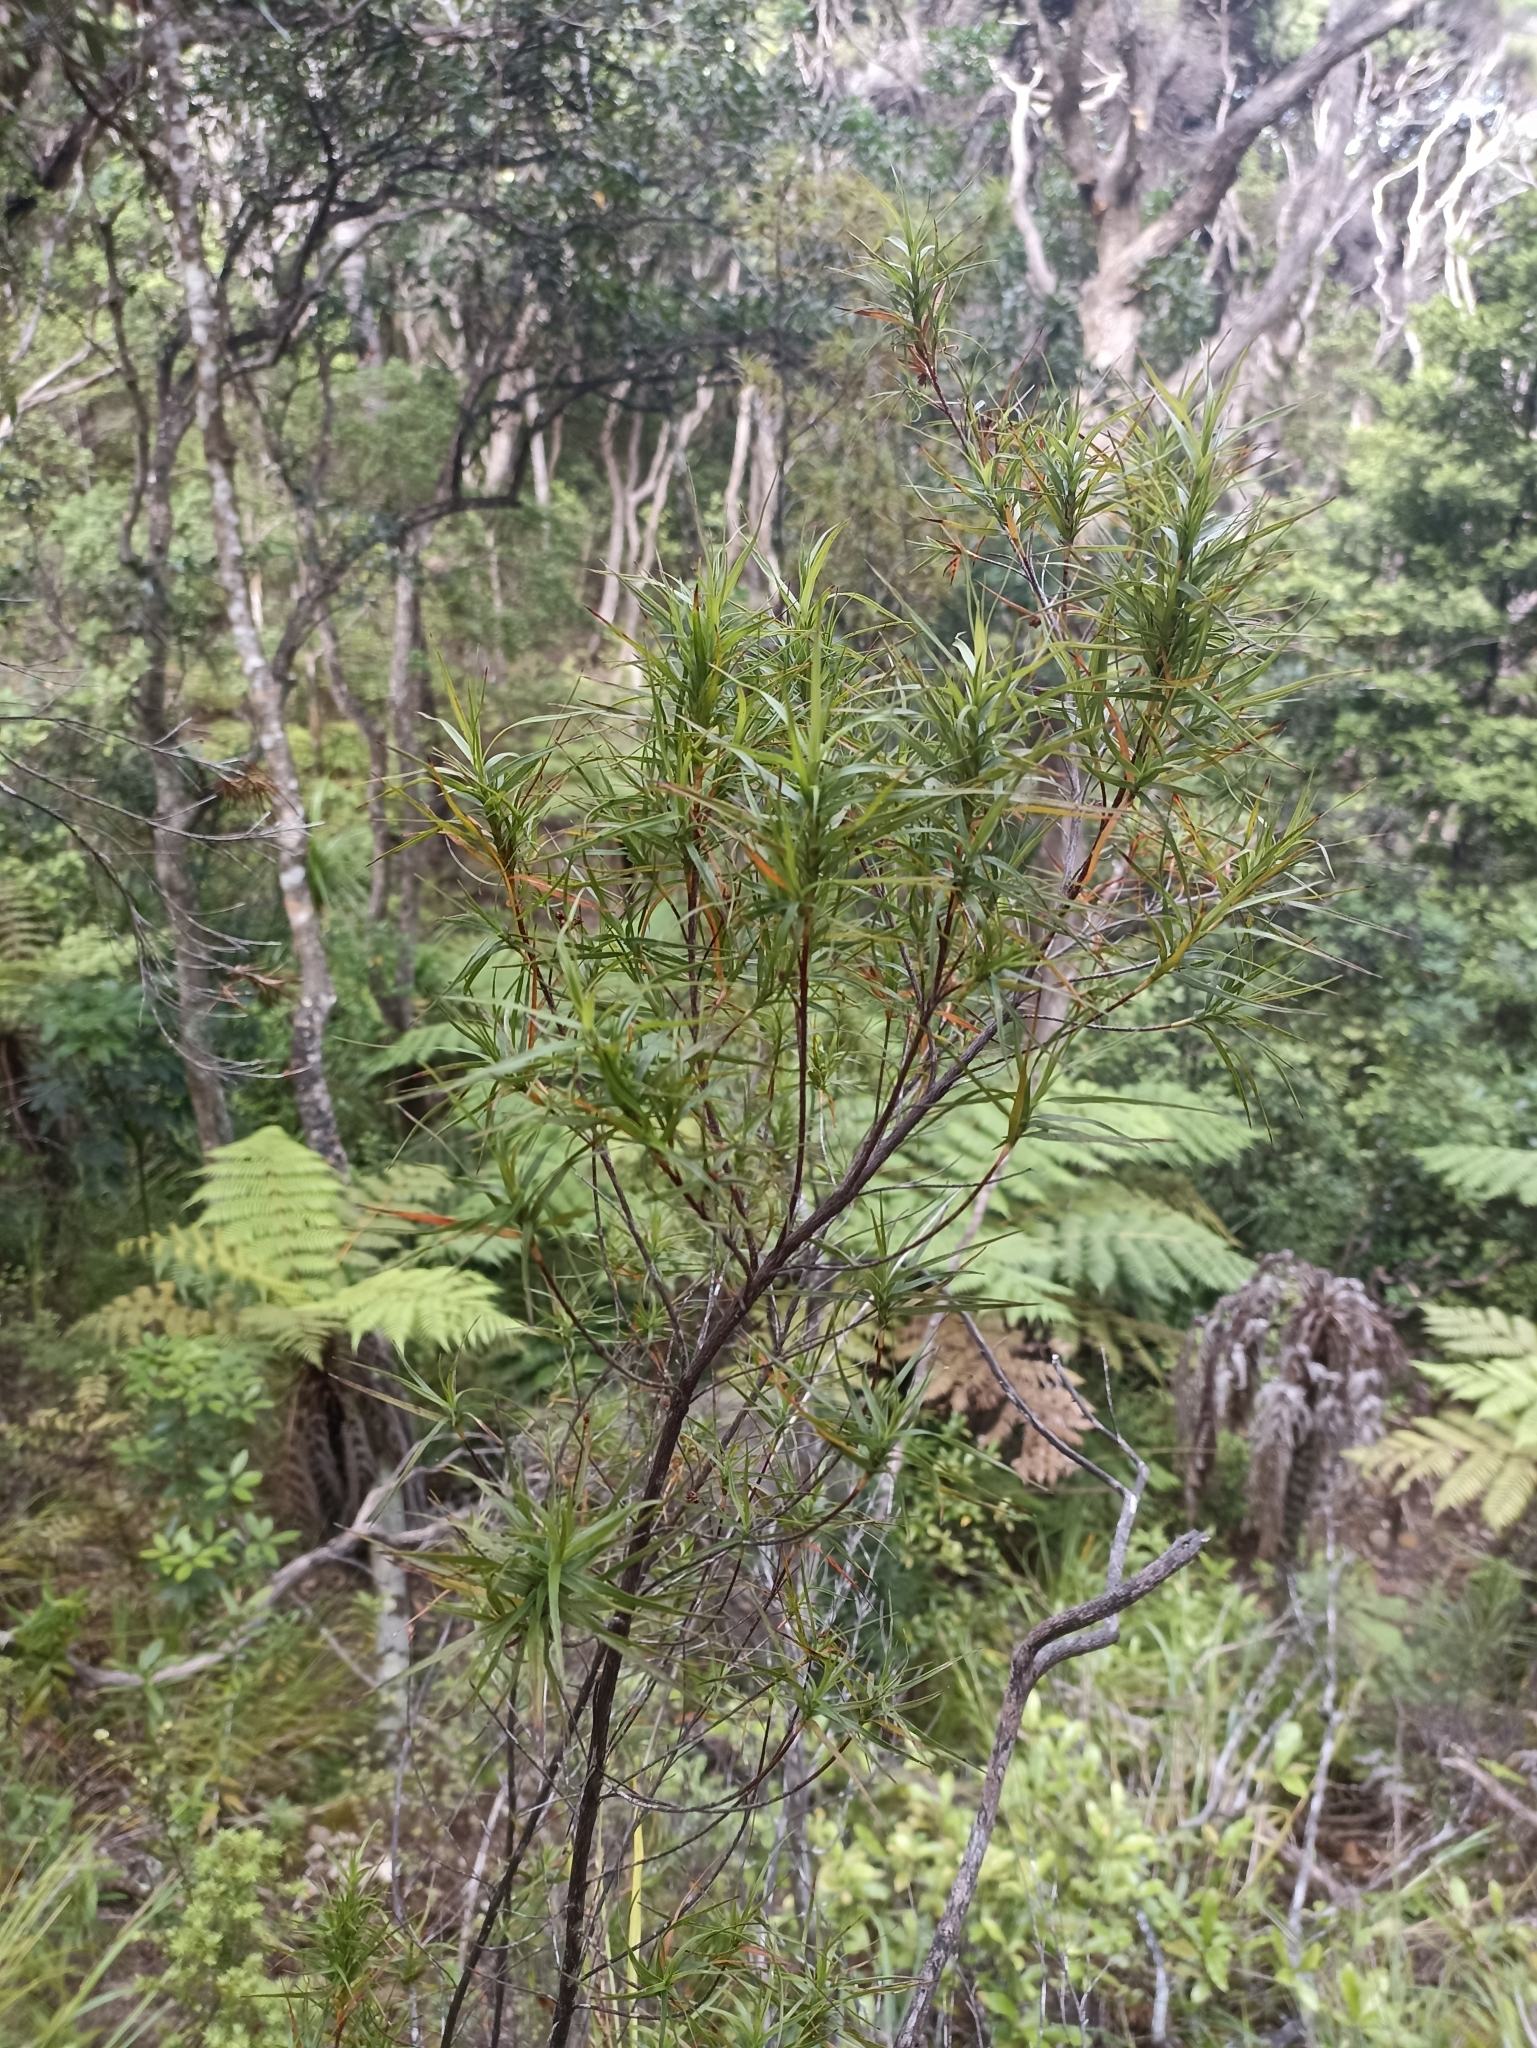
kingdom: Plantae
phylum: Tracheophyta
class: Magnoliopsida
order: Ericales
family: Ericaceae
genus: Dracophyllum
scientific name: Dracophyllum sinclairii
